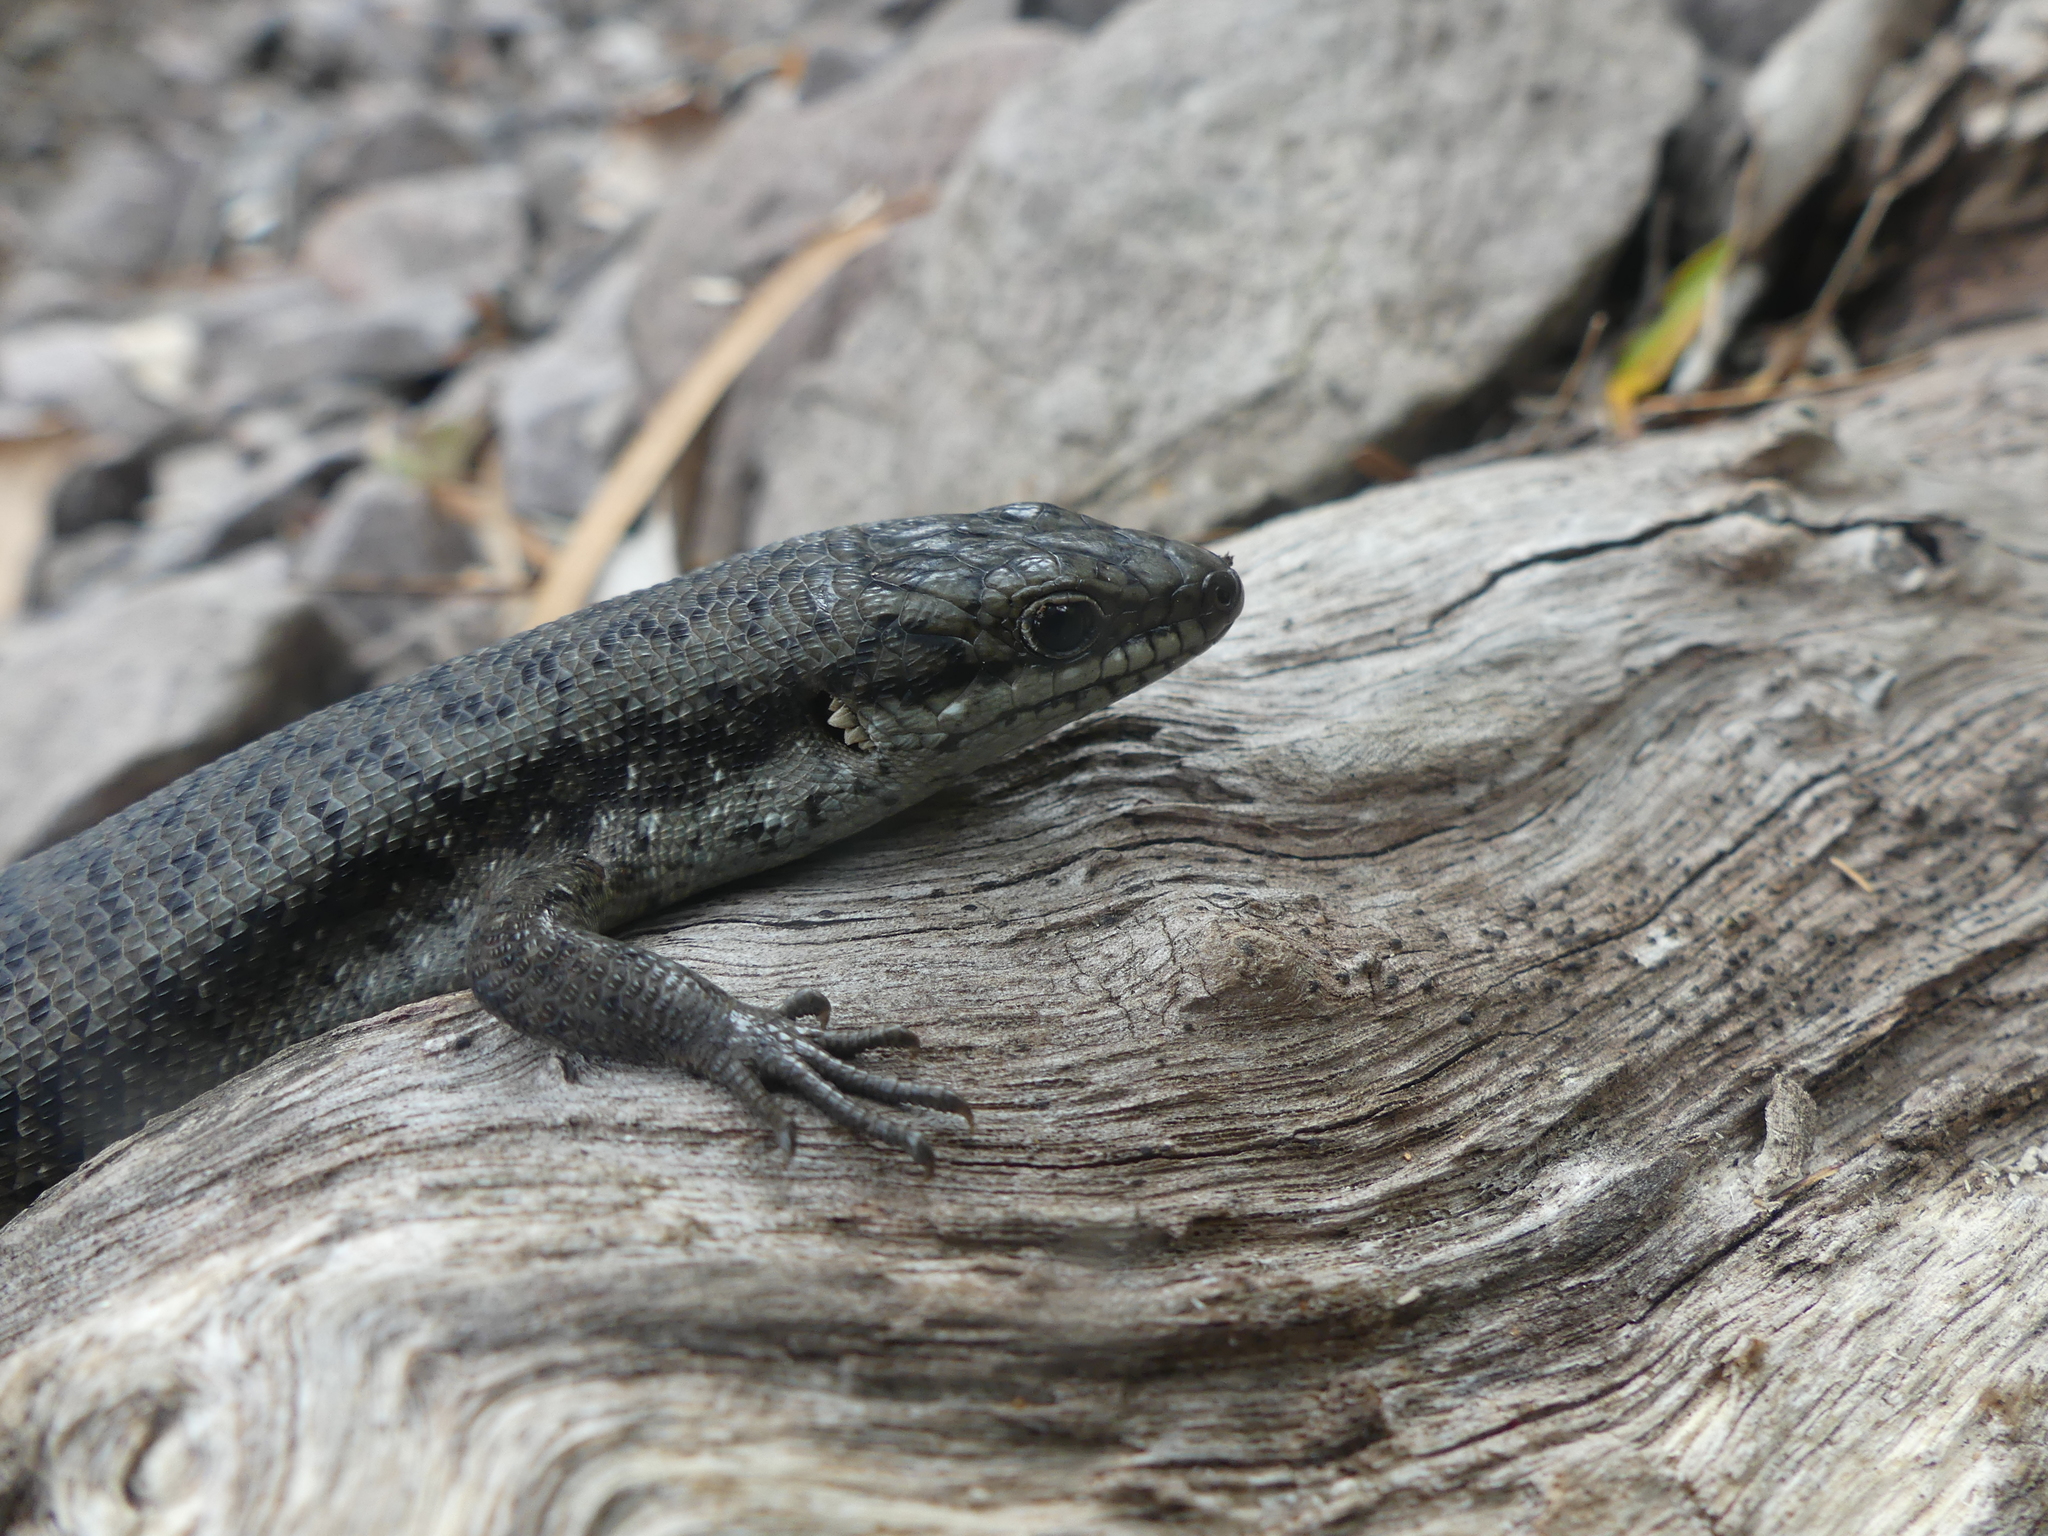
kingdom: Animalia
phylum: Chordata
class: Squamata
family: Scincidae
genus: Egernia
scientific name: Egernia napoleonis
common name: South-western crevice skink
